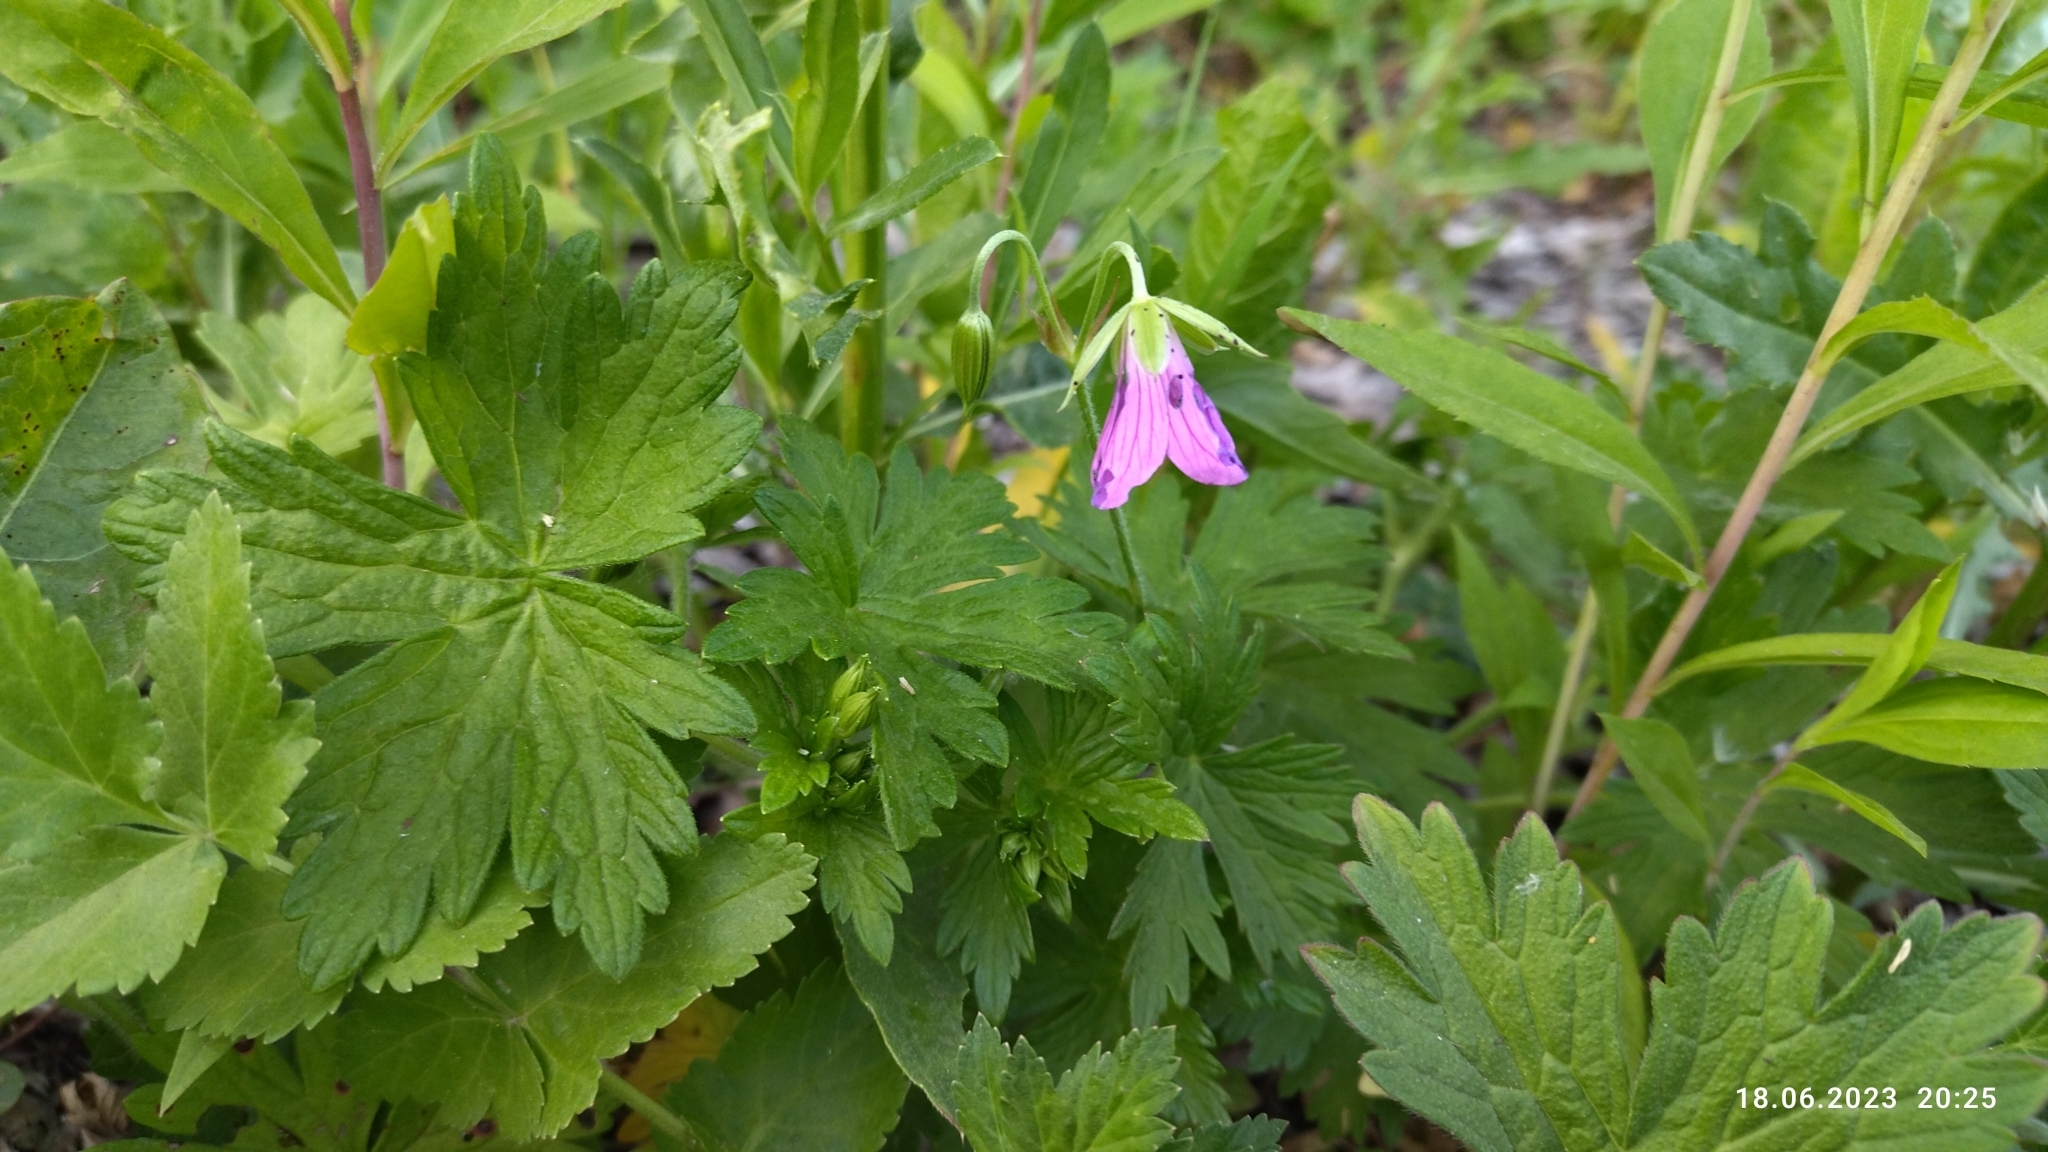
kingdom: Plantae
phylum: Tracheophyta
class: Magnoliopsida
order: Geraniales
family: Geraniaceae
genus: Geranium
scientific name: Geranium palustre
